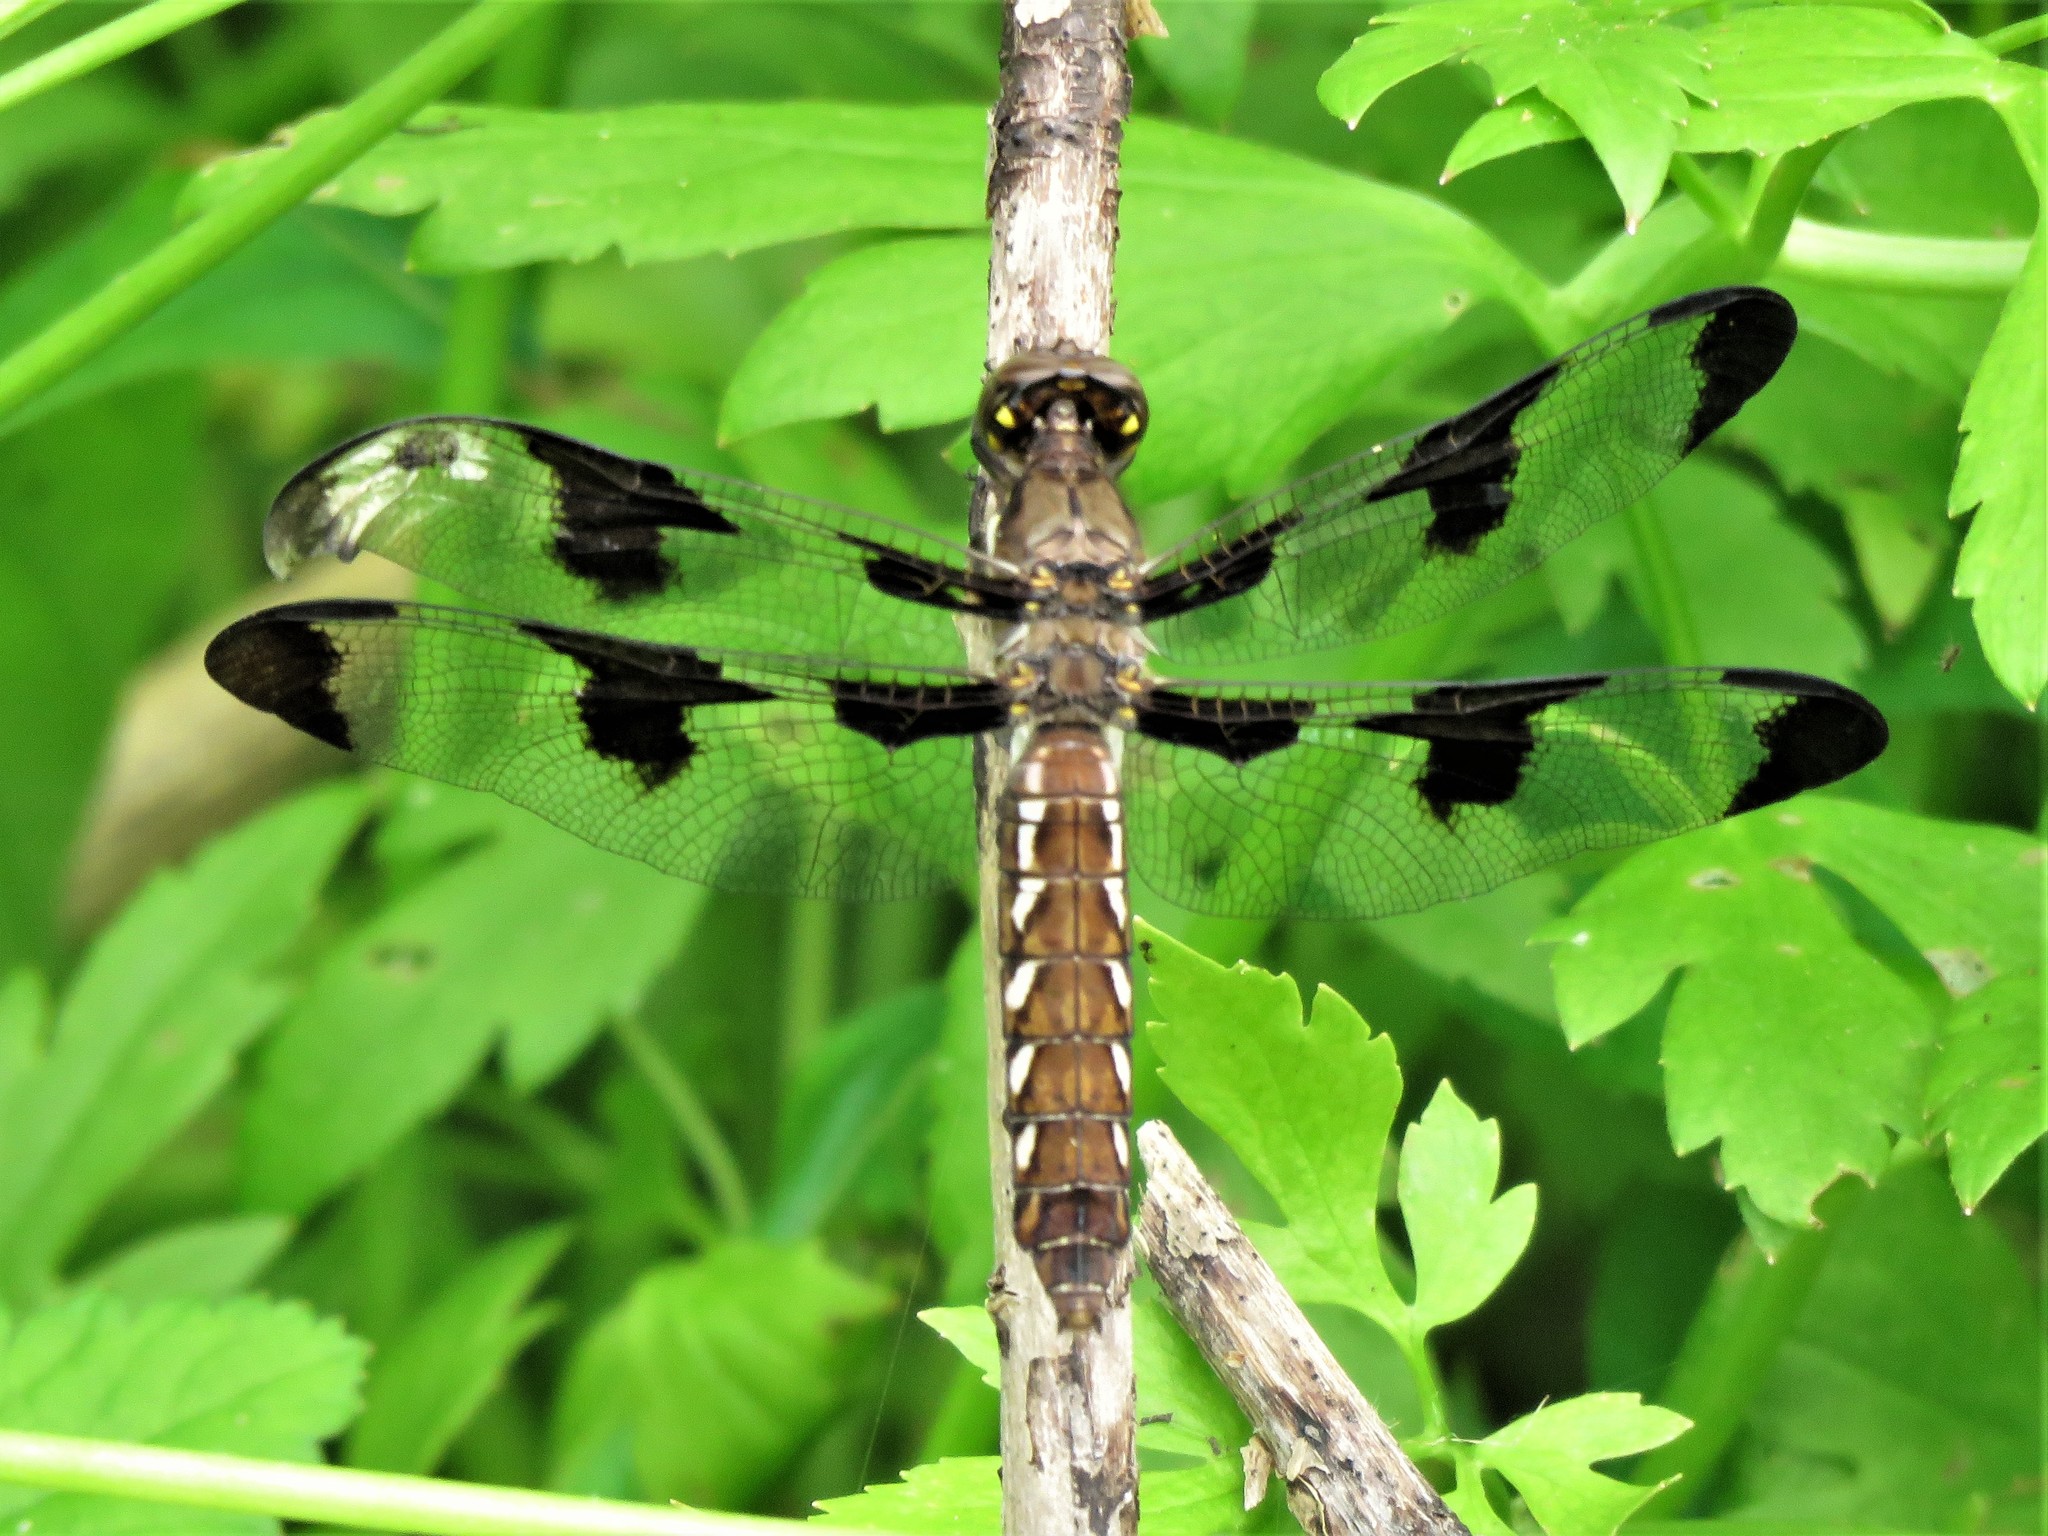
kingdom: Animalia
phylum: Arthropoda
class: Insecta
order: Odonata
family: Libellulidae
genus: Plathemis
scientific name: Plathemis lydia
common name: Common whitetail
